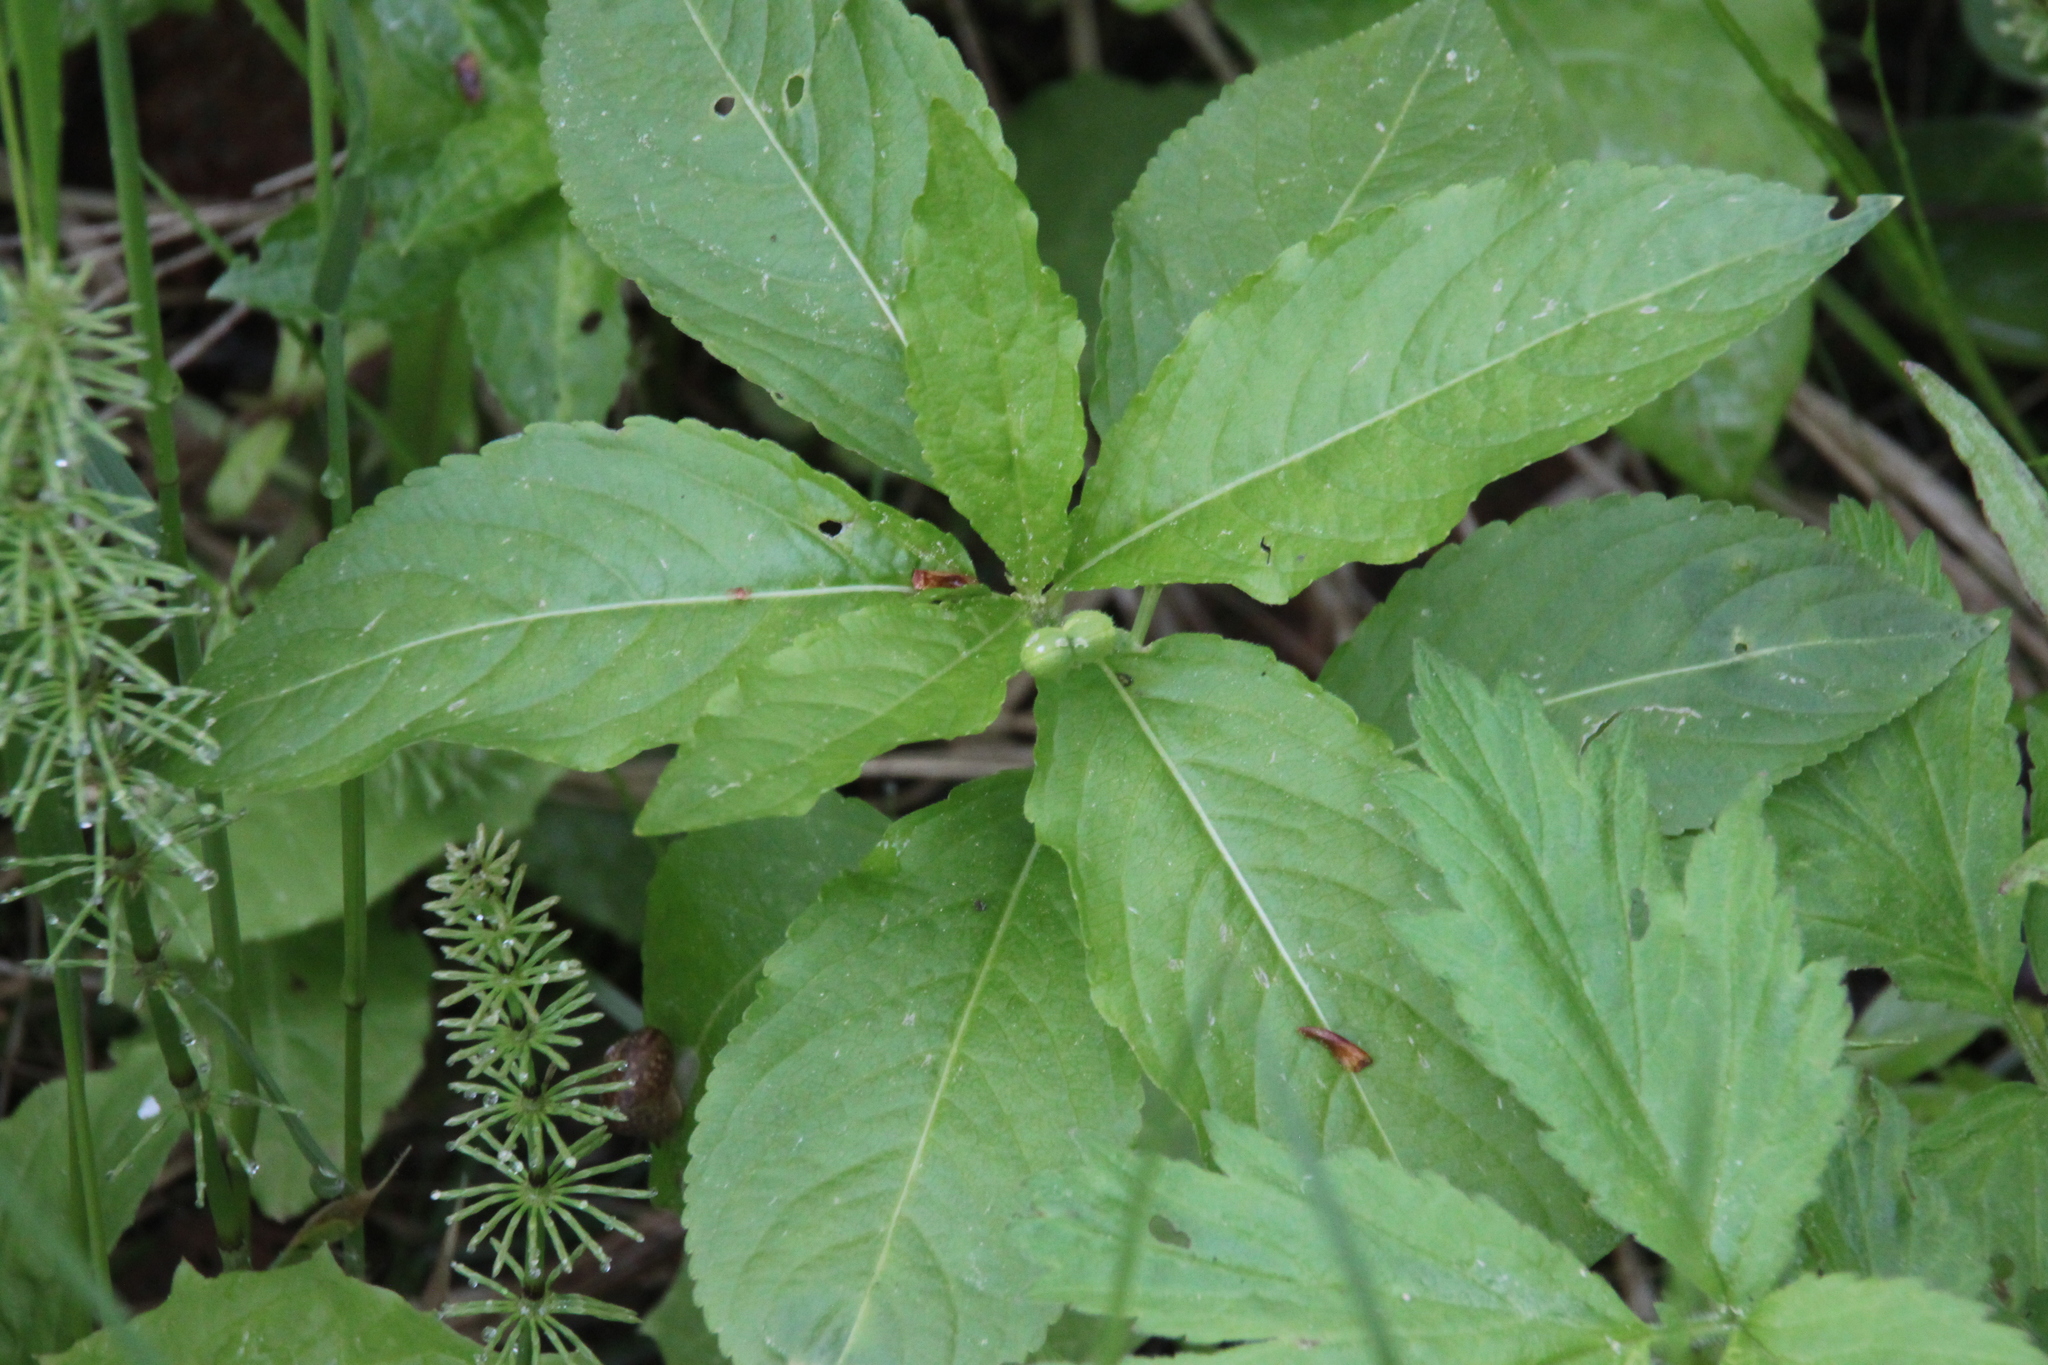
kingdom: Plantae
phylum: Tracheophyta
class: Magnoliopsida
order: Malpighiales
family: Euphorbiaceae
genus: Mercurialis
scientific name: Mercurialis perennis
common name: Dog mercury
